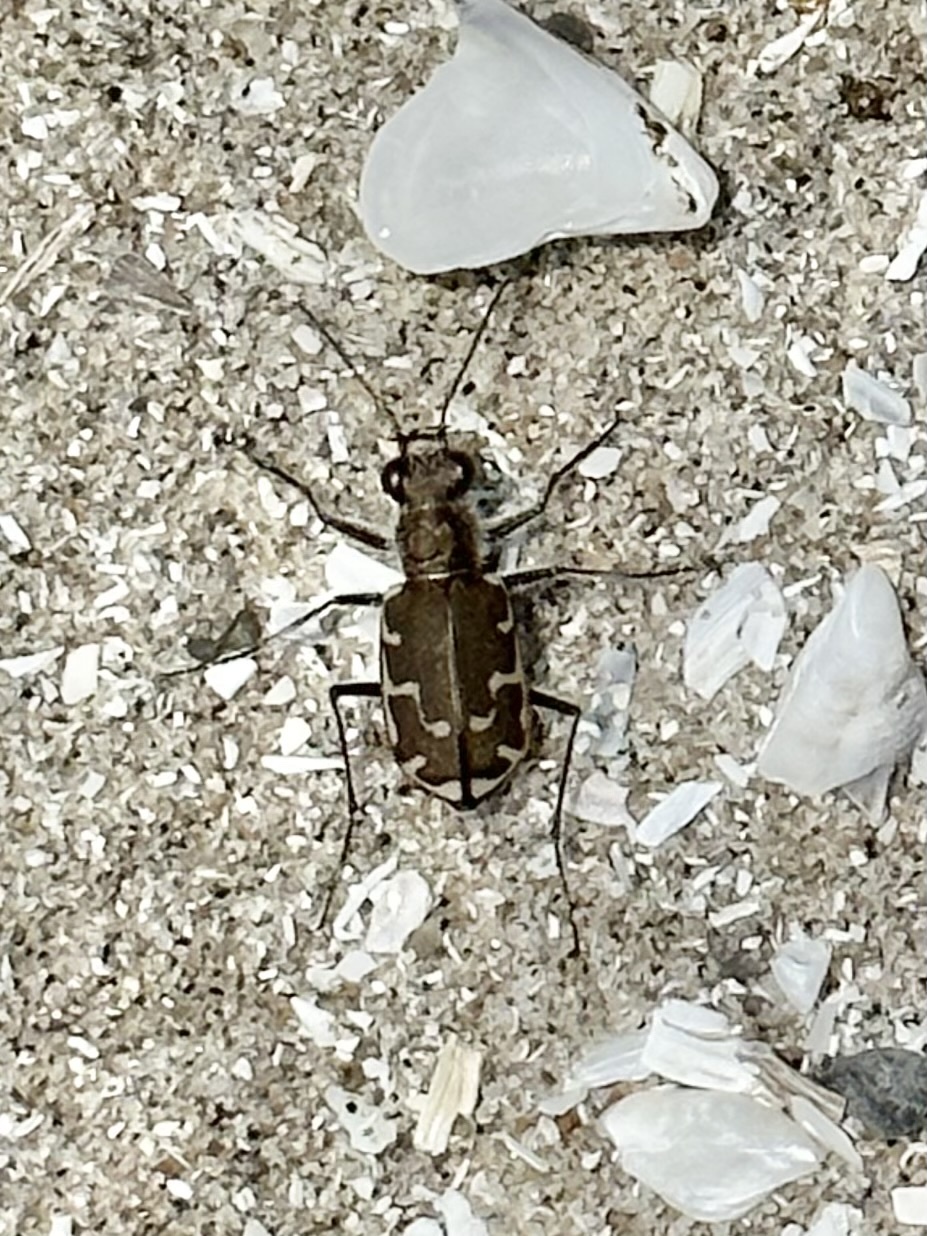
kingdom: Animalia
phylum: Arthropoda
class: Insecta
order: Coleoptera
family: Carabidae
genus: Cicindela
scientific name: Cicindela repanda
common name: Bronzed tiger beetle
